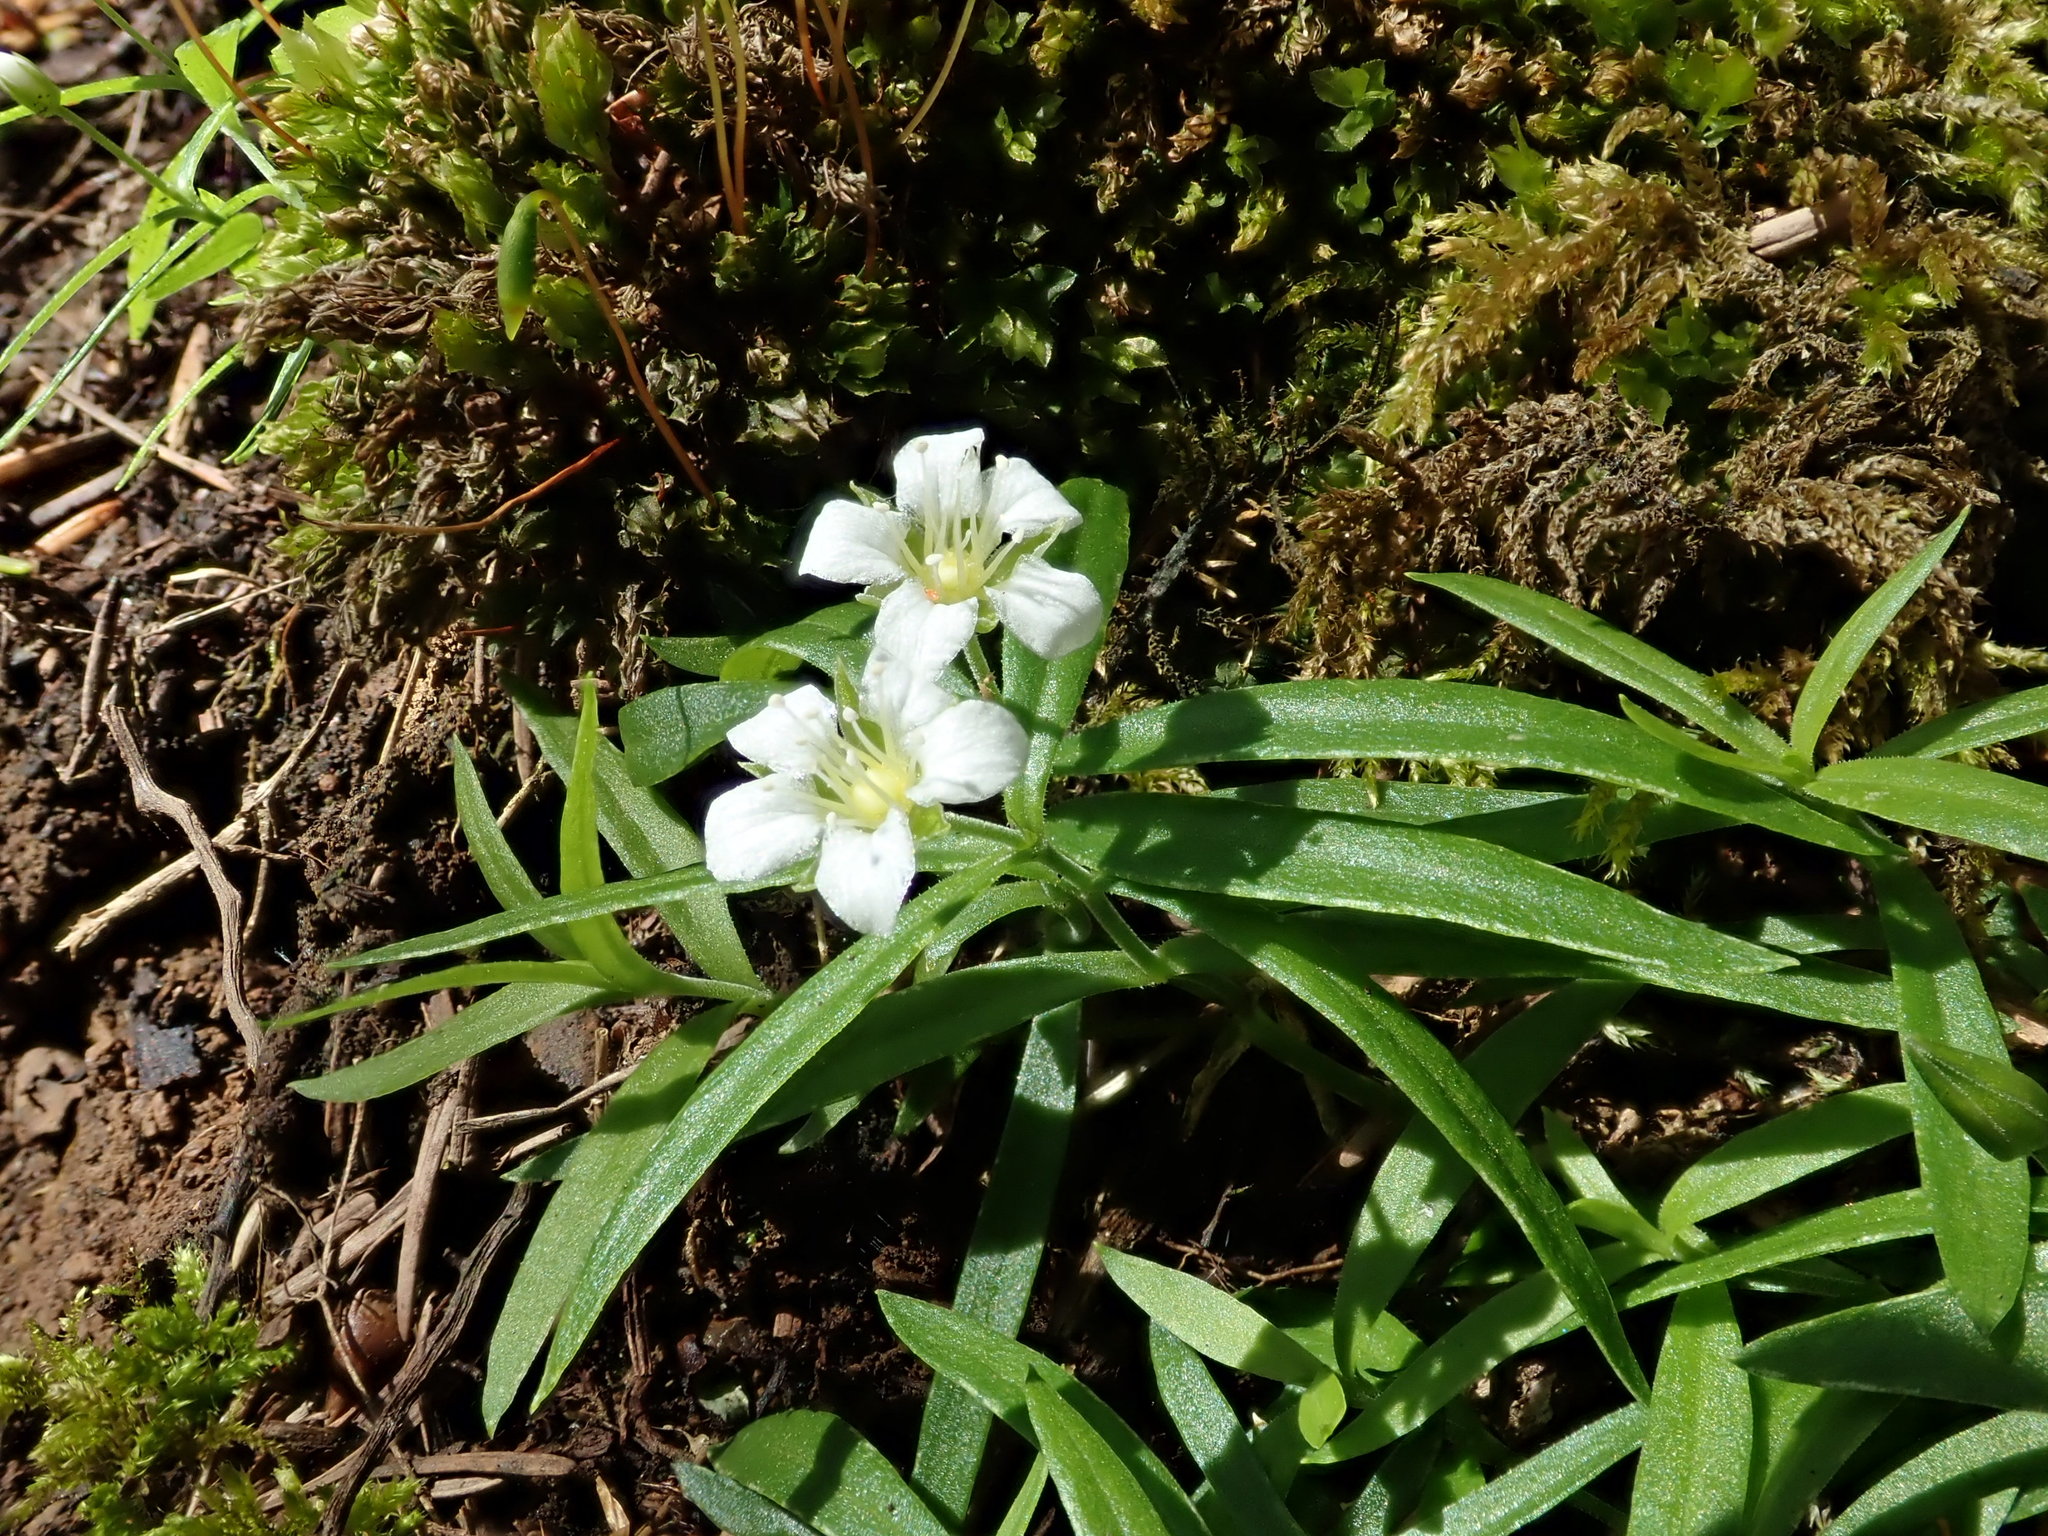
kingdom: Plantae
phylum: Tracheophyta
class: Magnoliopsida
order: Caryophyllales
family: Caryophyllaceae
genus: Moehringia
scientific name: Moehringia macrophylla
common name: Big-leaf sandwort
